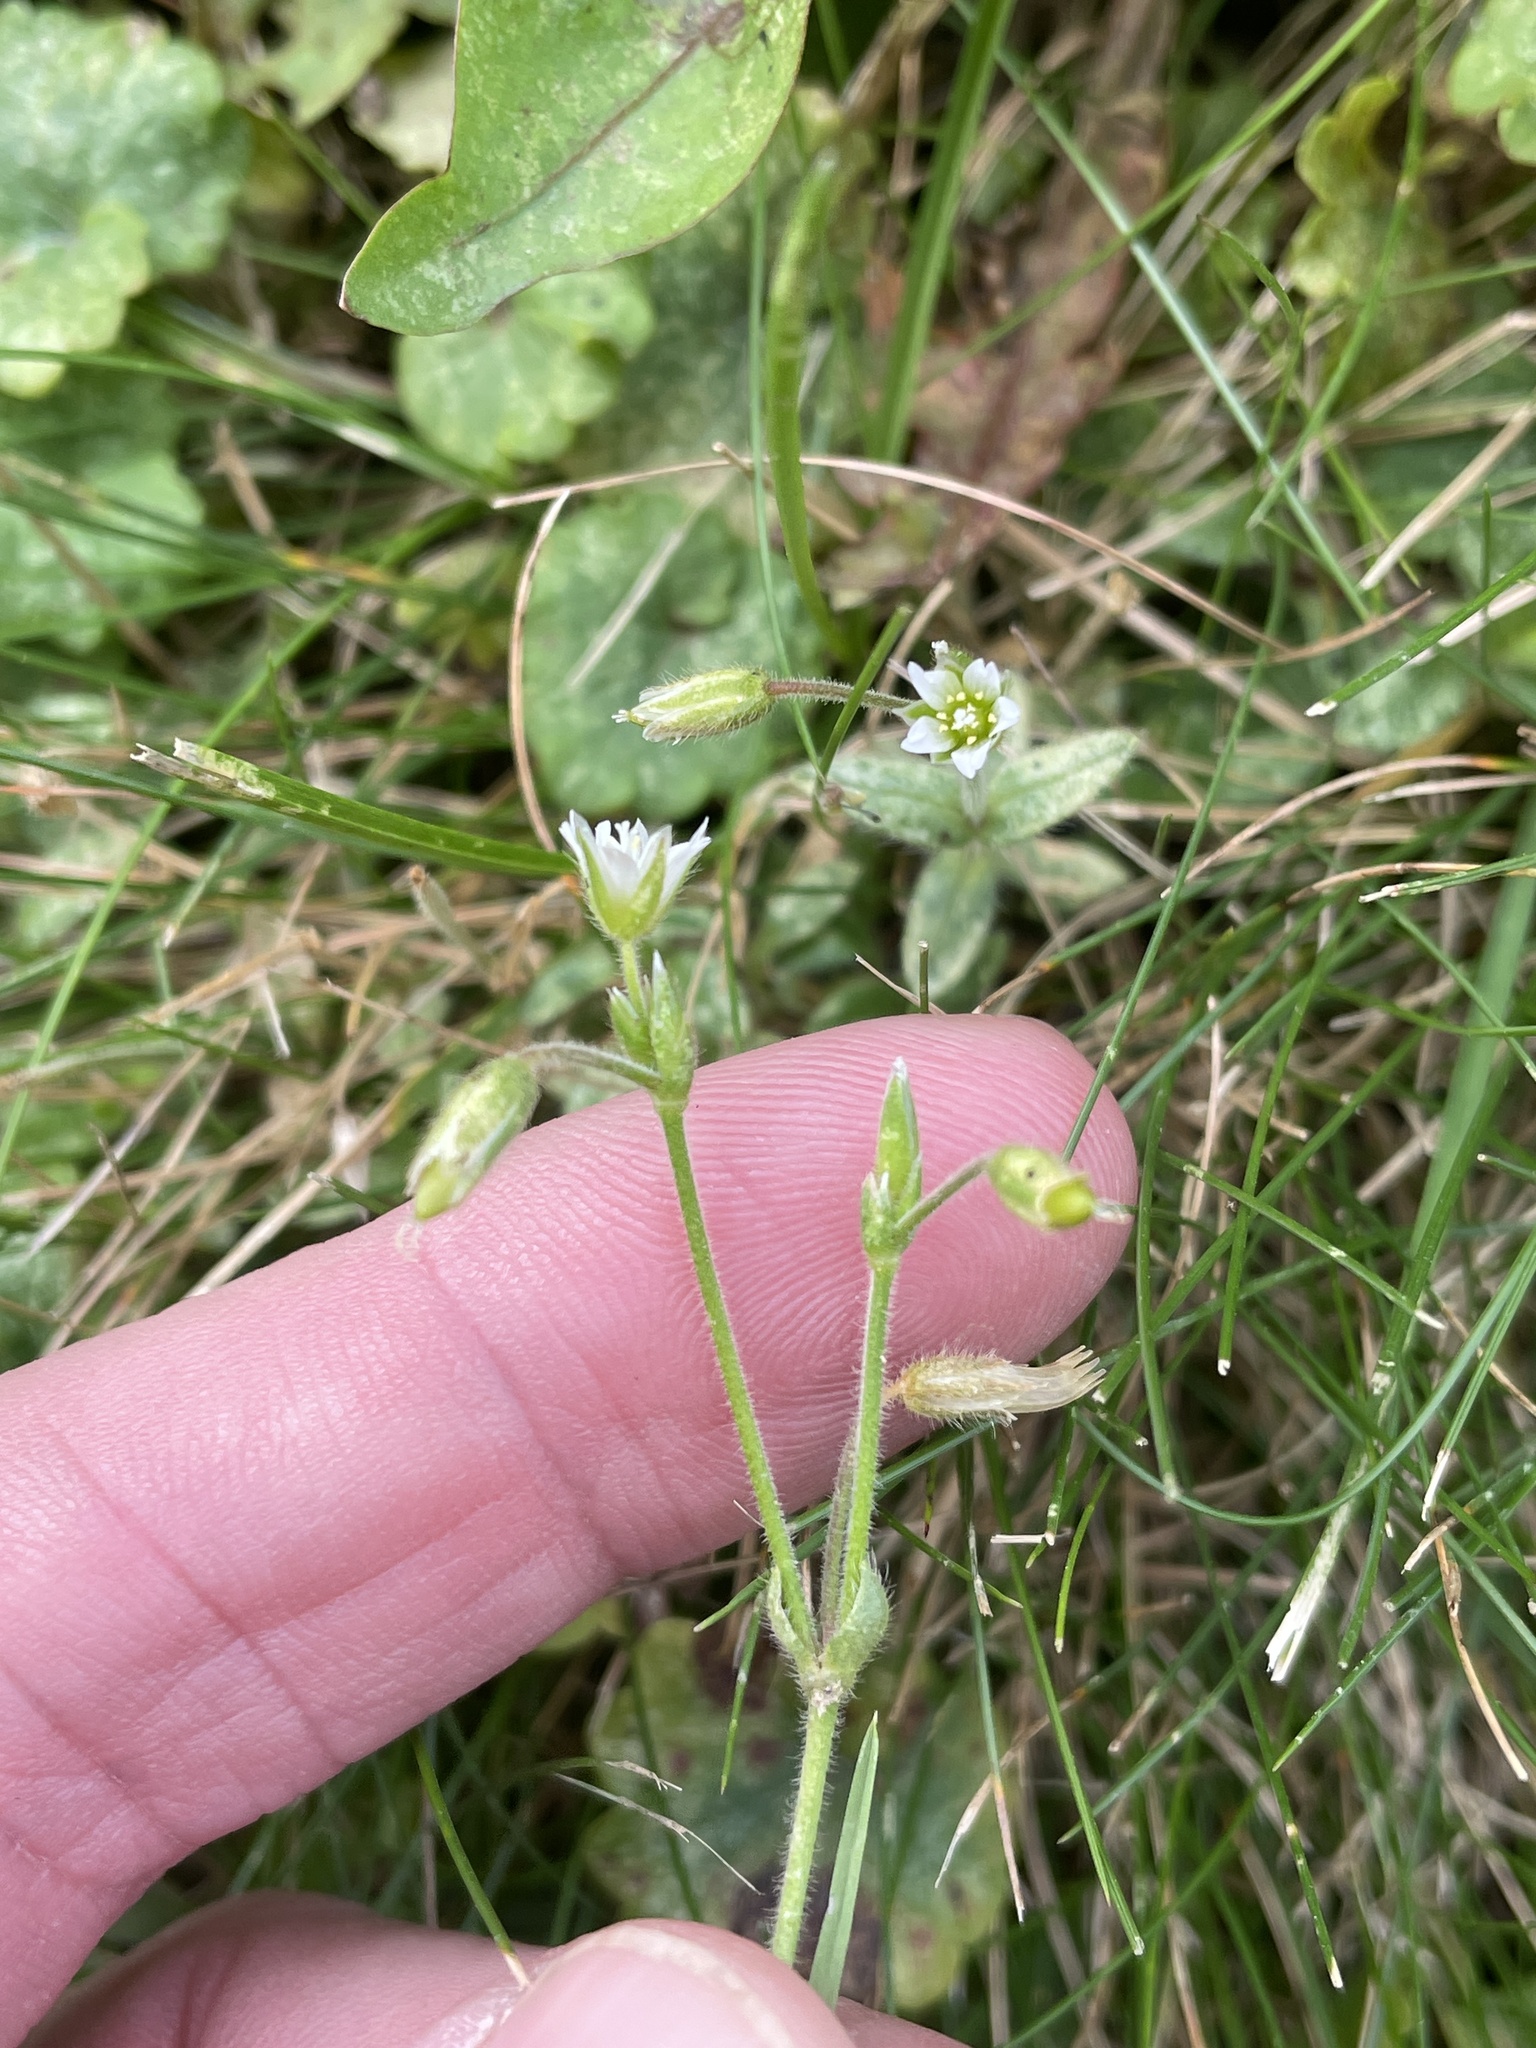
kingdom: Plantae
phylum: Tracheophyta
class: Magnoliopsida
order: Caryophyllales
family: Caryophyllaceae
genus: Cerastium
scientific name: Cerastium fontanum
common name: Common mouse-ear
